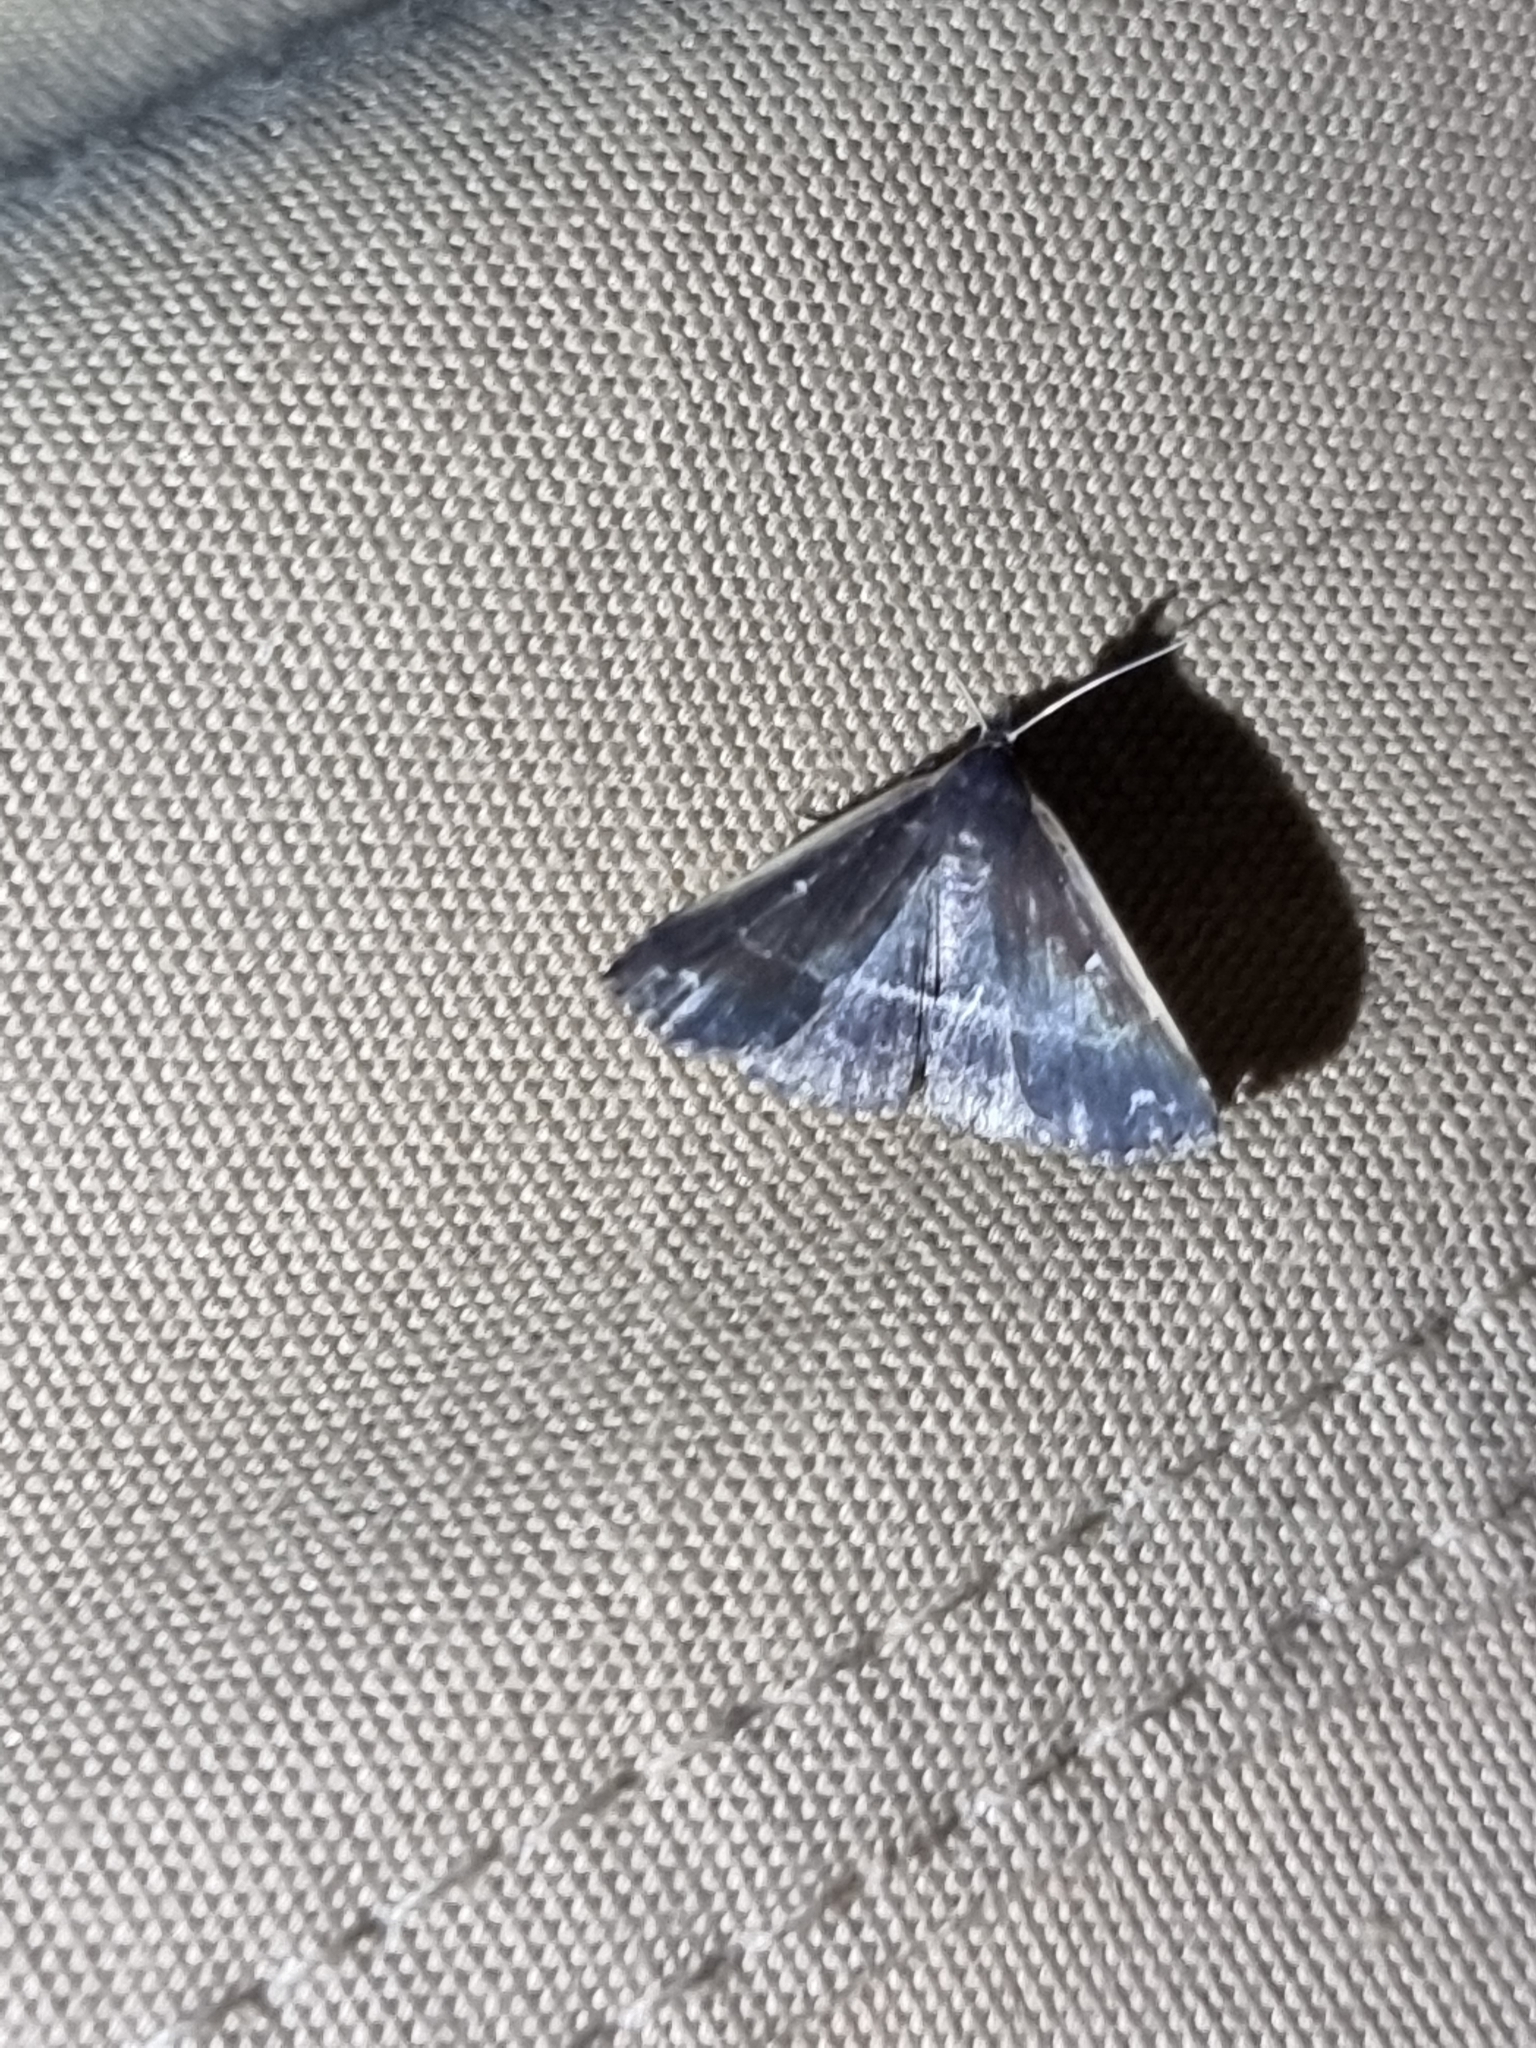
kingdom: Animalia
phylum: Arthropoda
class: Insecta
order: Lepidoptera
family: Erebidae
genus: Adrapsa
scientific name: Adrapsa ablualis
